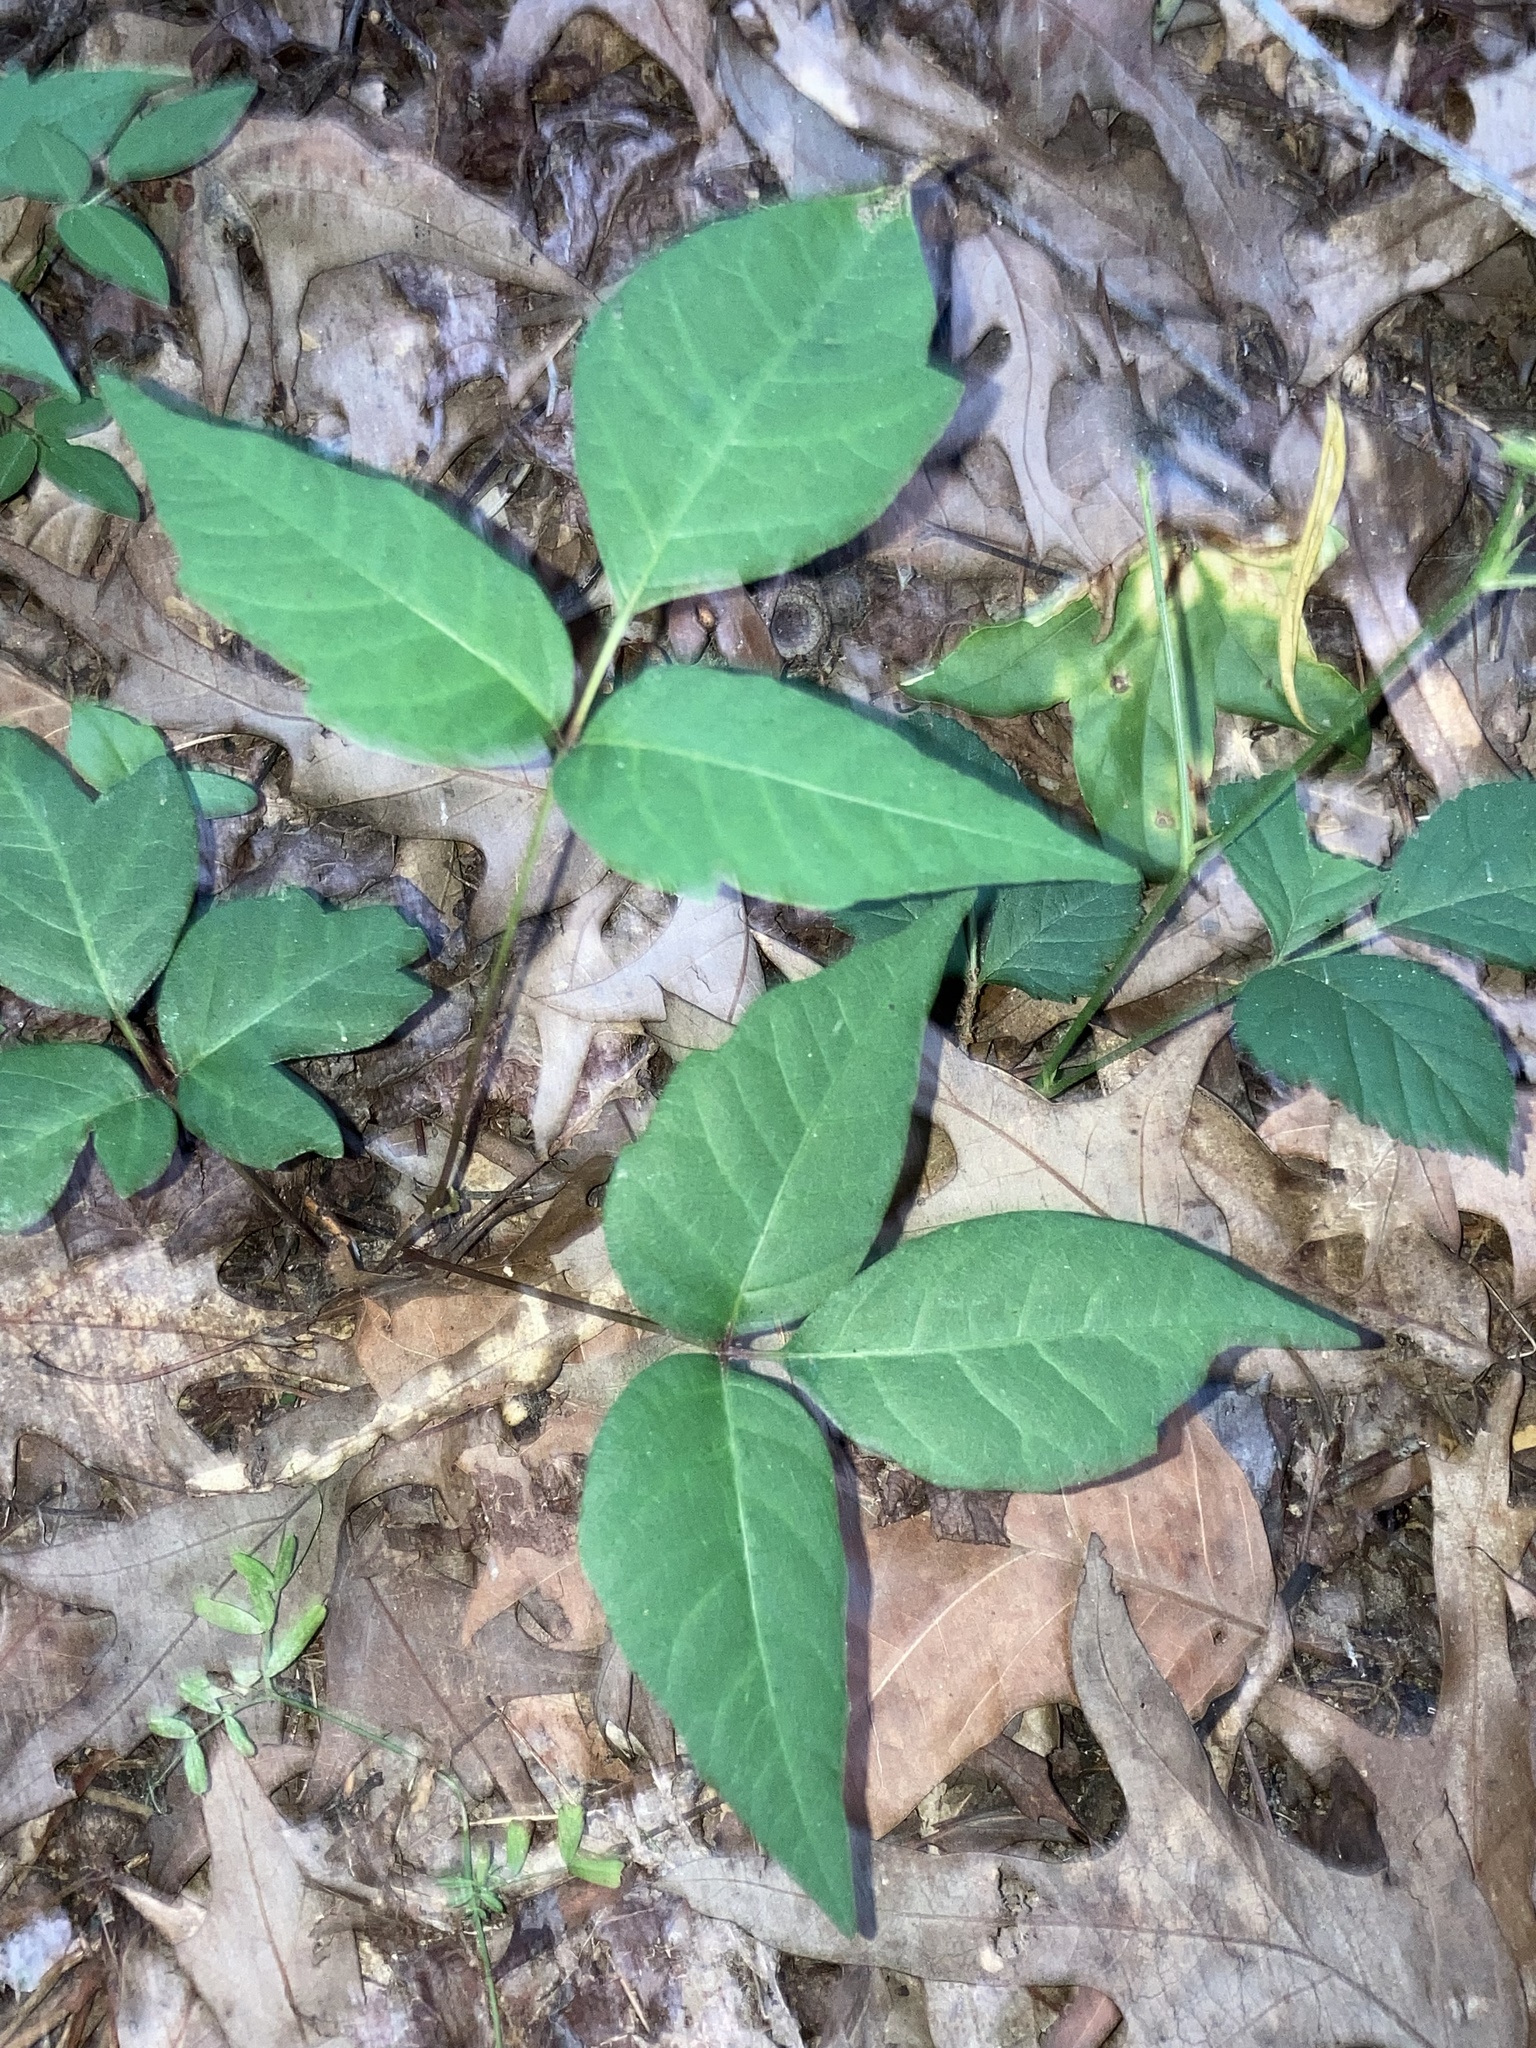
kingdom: Plantae
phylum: Tracheophyta
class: Magnoliopsida
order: Sapindales
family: Anacardiaceae
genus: Toxicodendron
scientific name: Toxicodendron radicans
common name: Poison ivy
